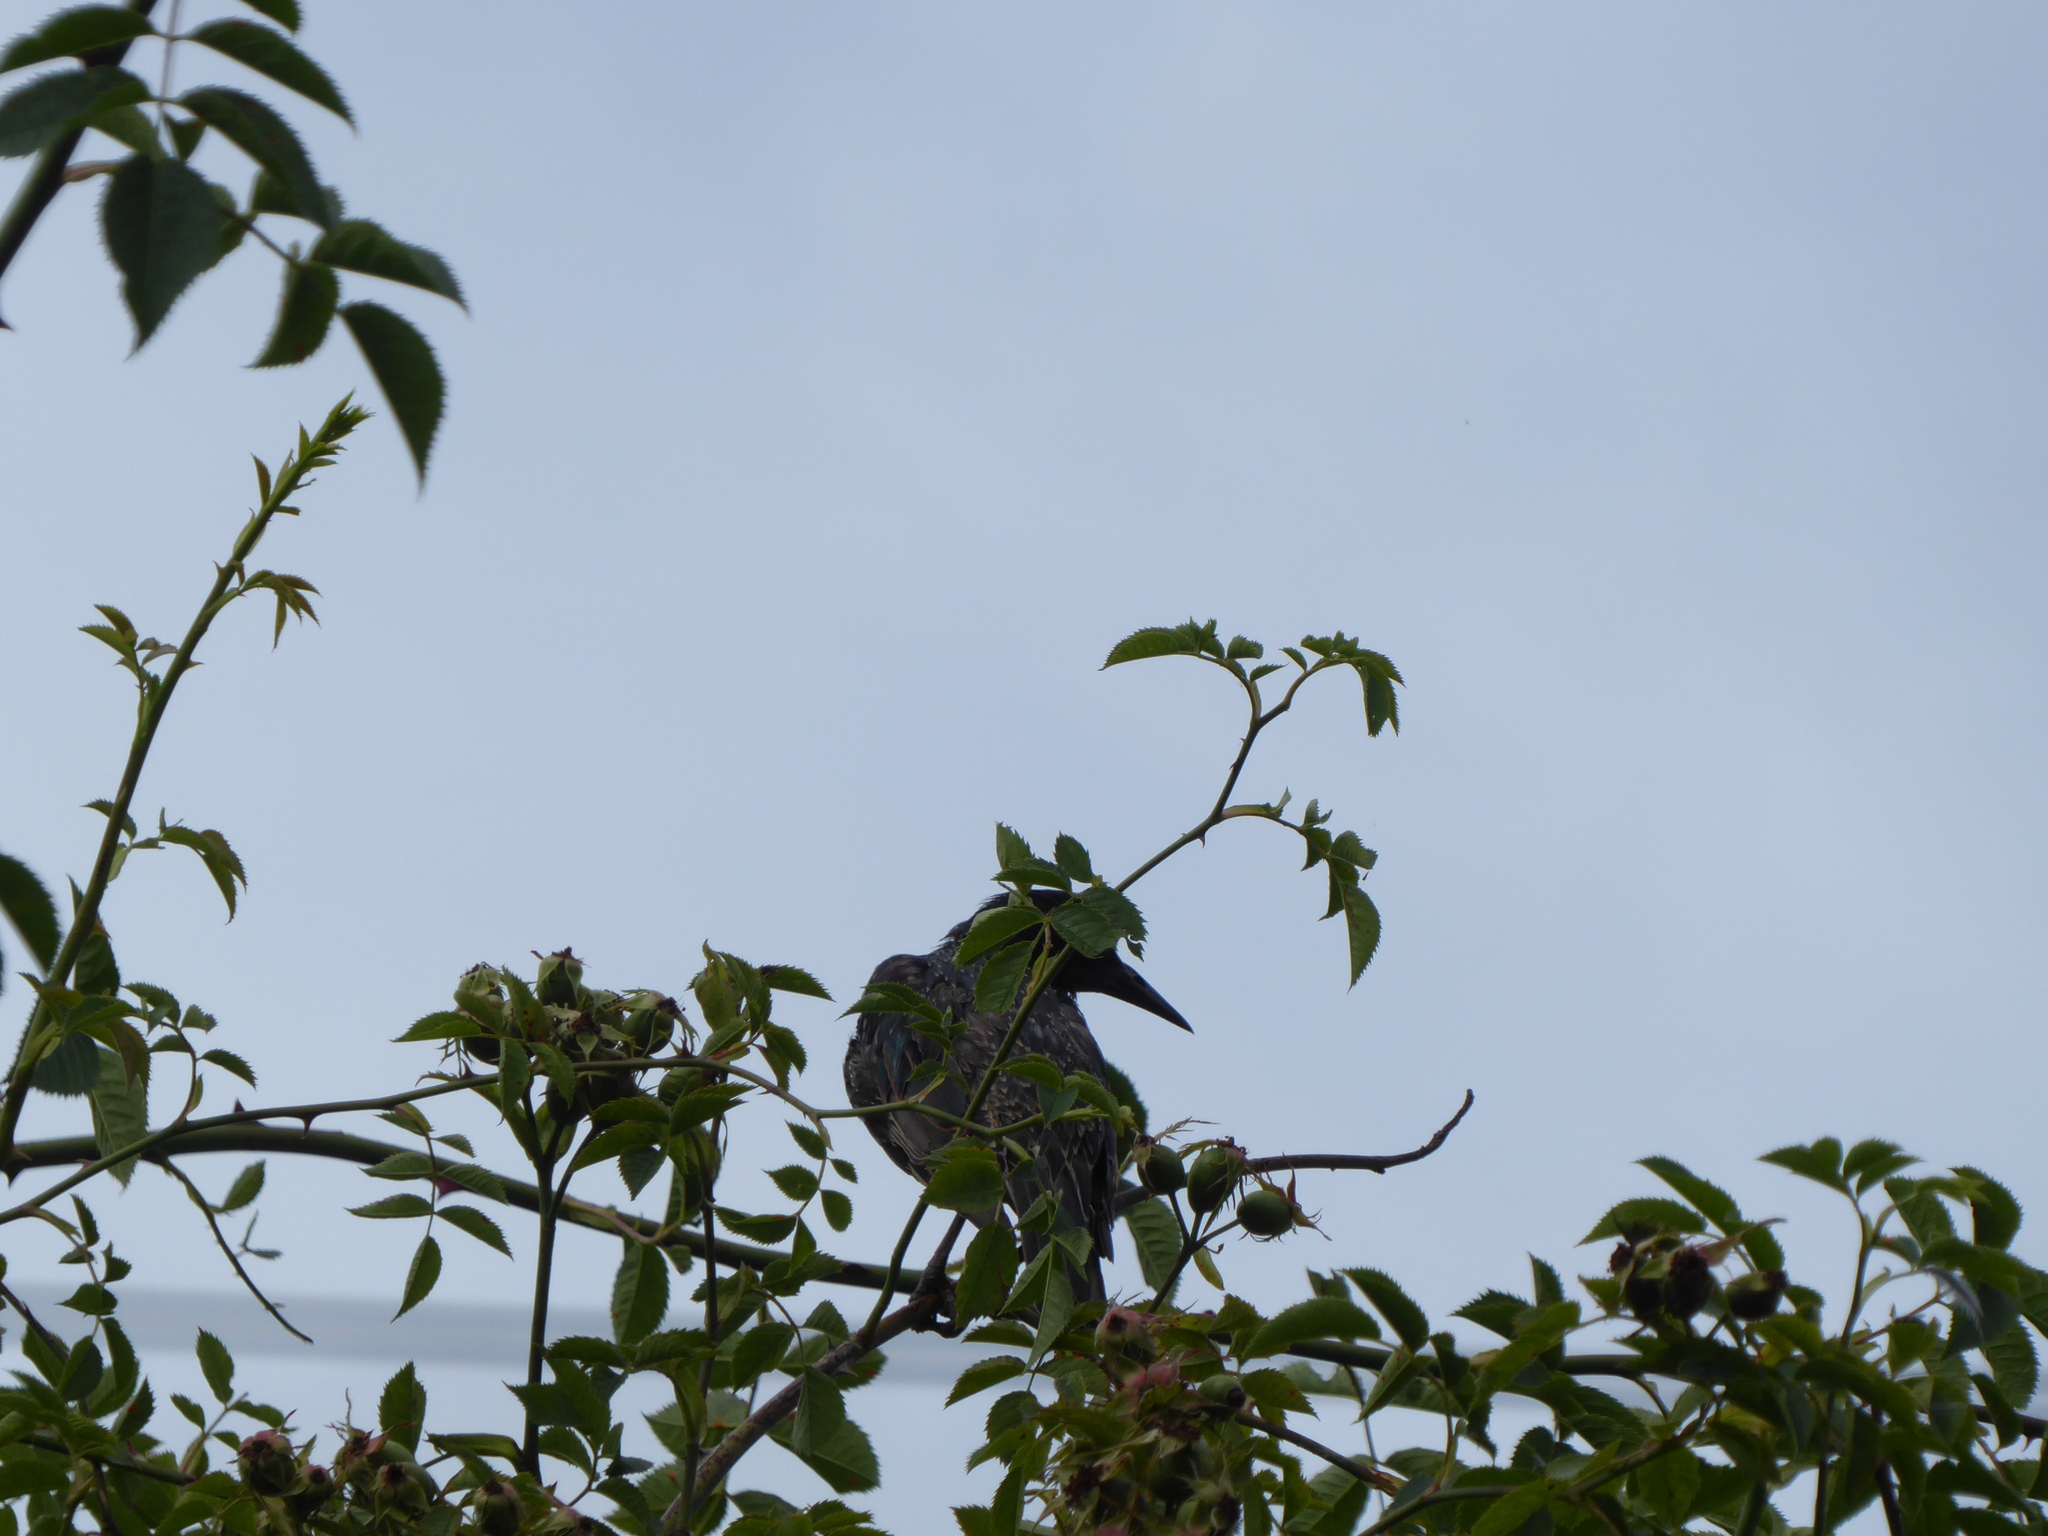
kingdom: Animalia
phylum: Chordata
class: Aves
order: Passeriformes
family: Sturnidae
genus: Sturnus
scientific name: Sturnus vulgaris
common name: Common starling
